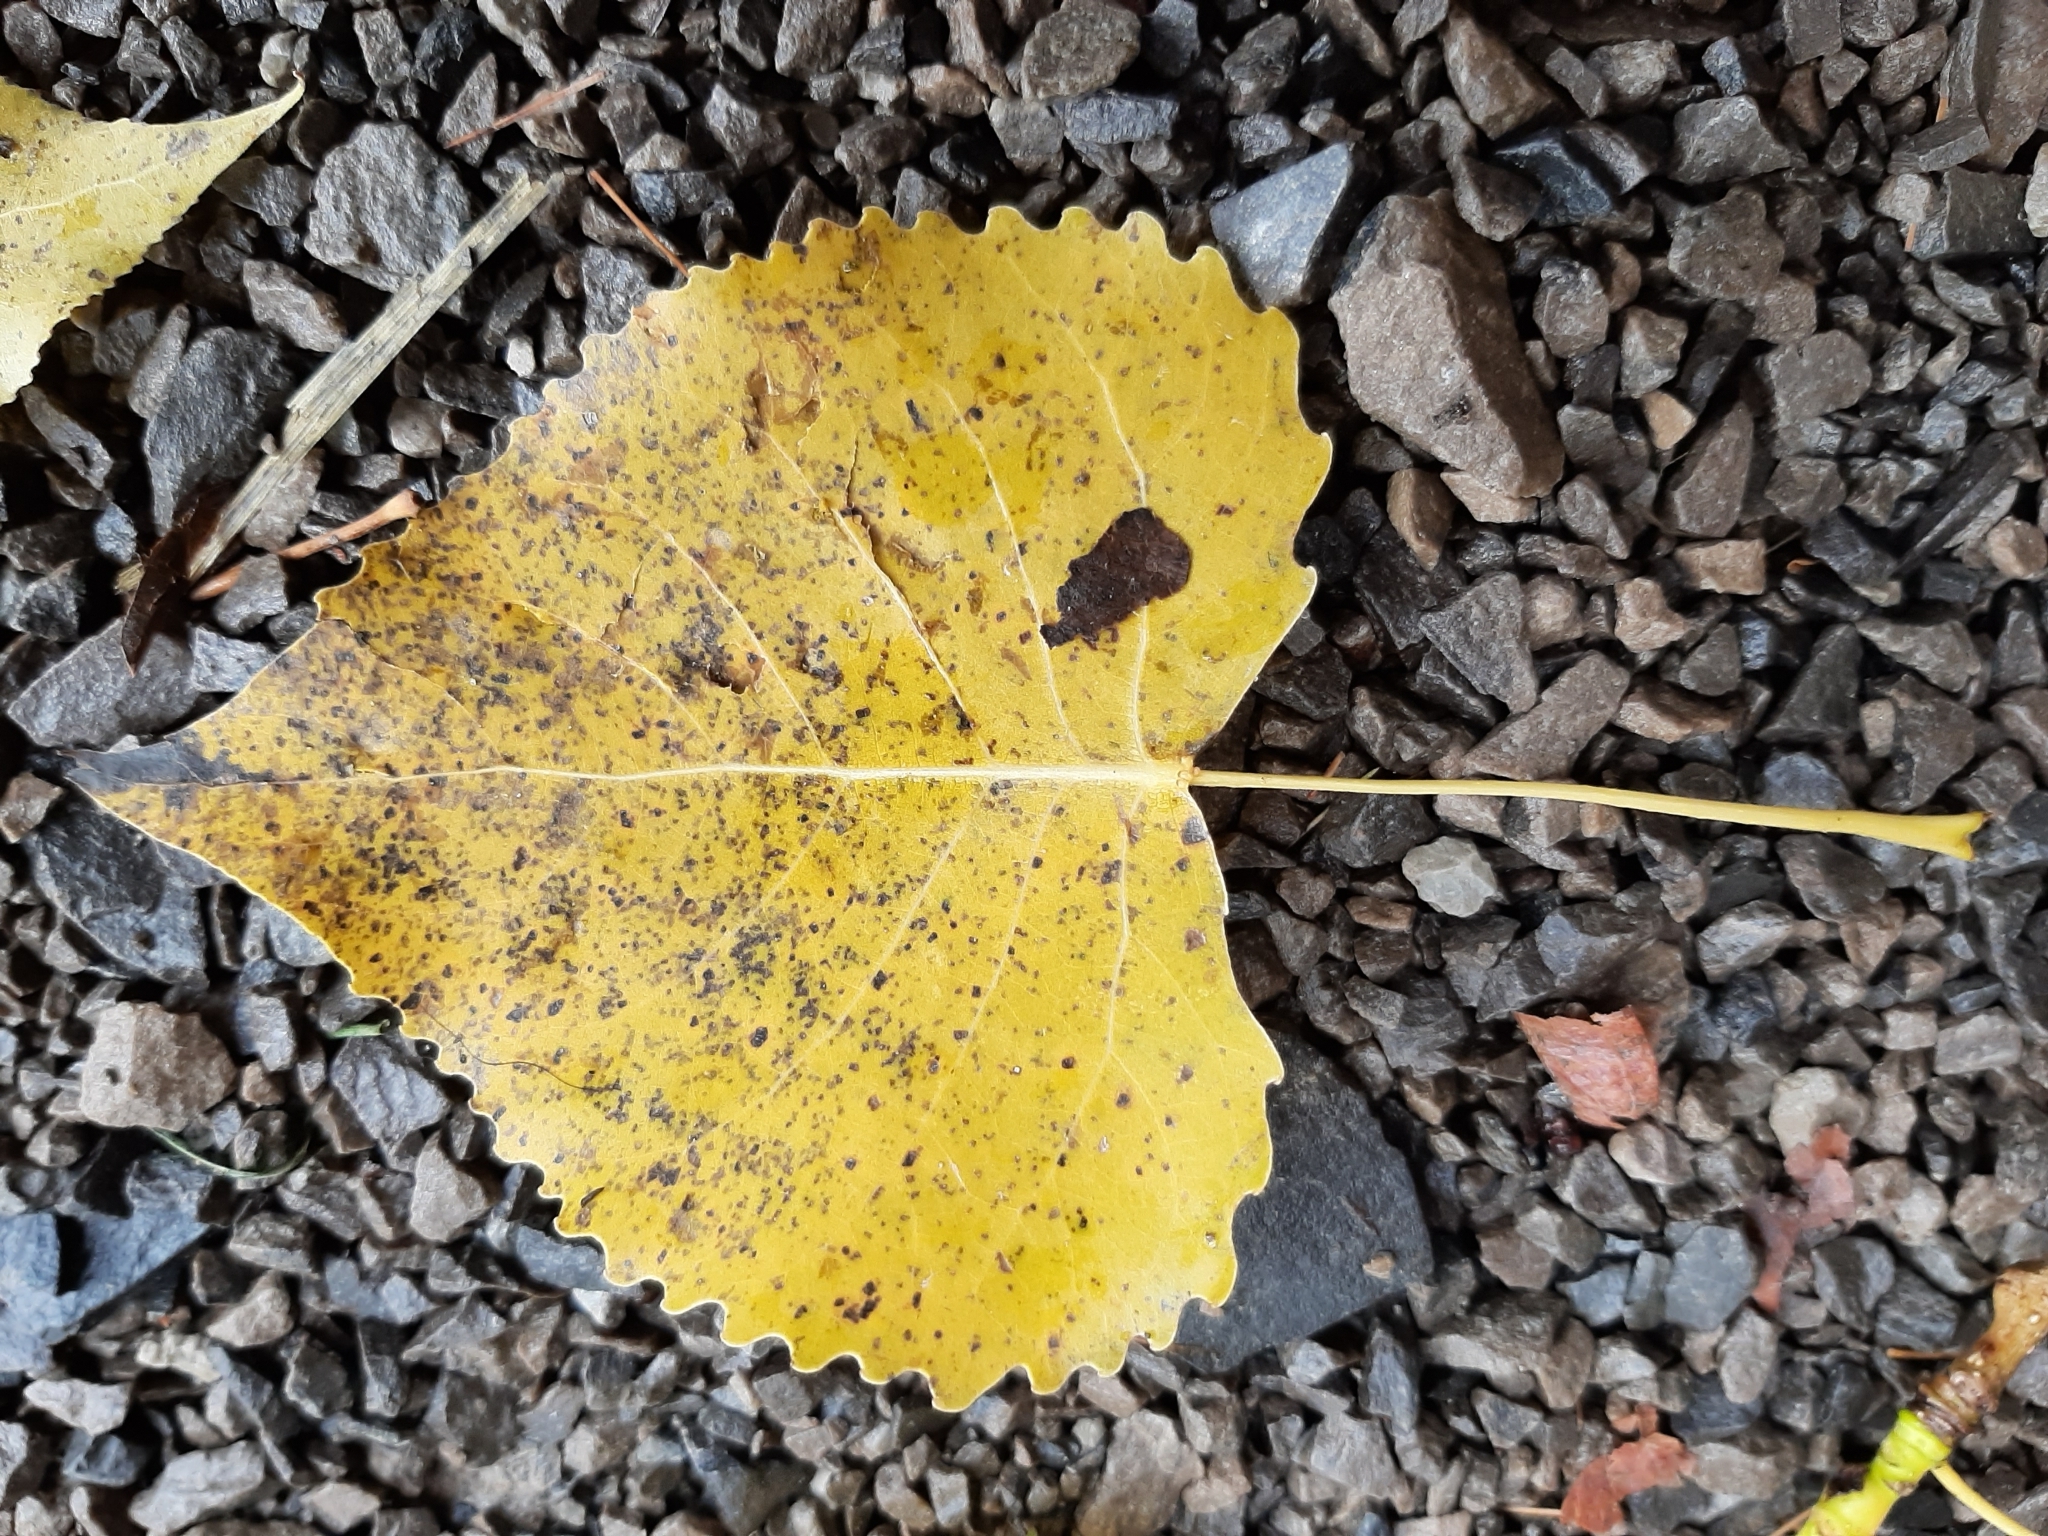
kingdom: Plantae
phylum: Tracheophyta
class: Magnoliopsida
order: Malpighiales
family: Salicaceae
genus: Populus
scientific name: Populus deltoides
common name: Eastern cottonwood
